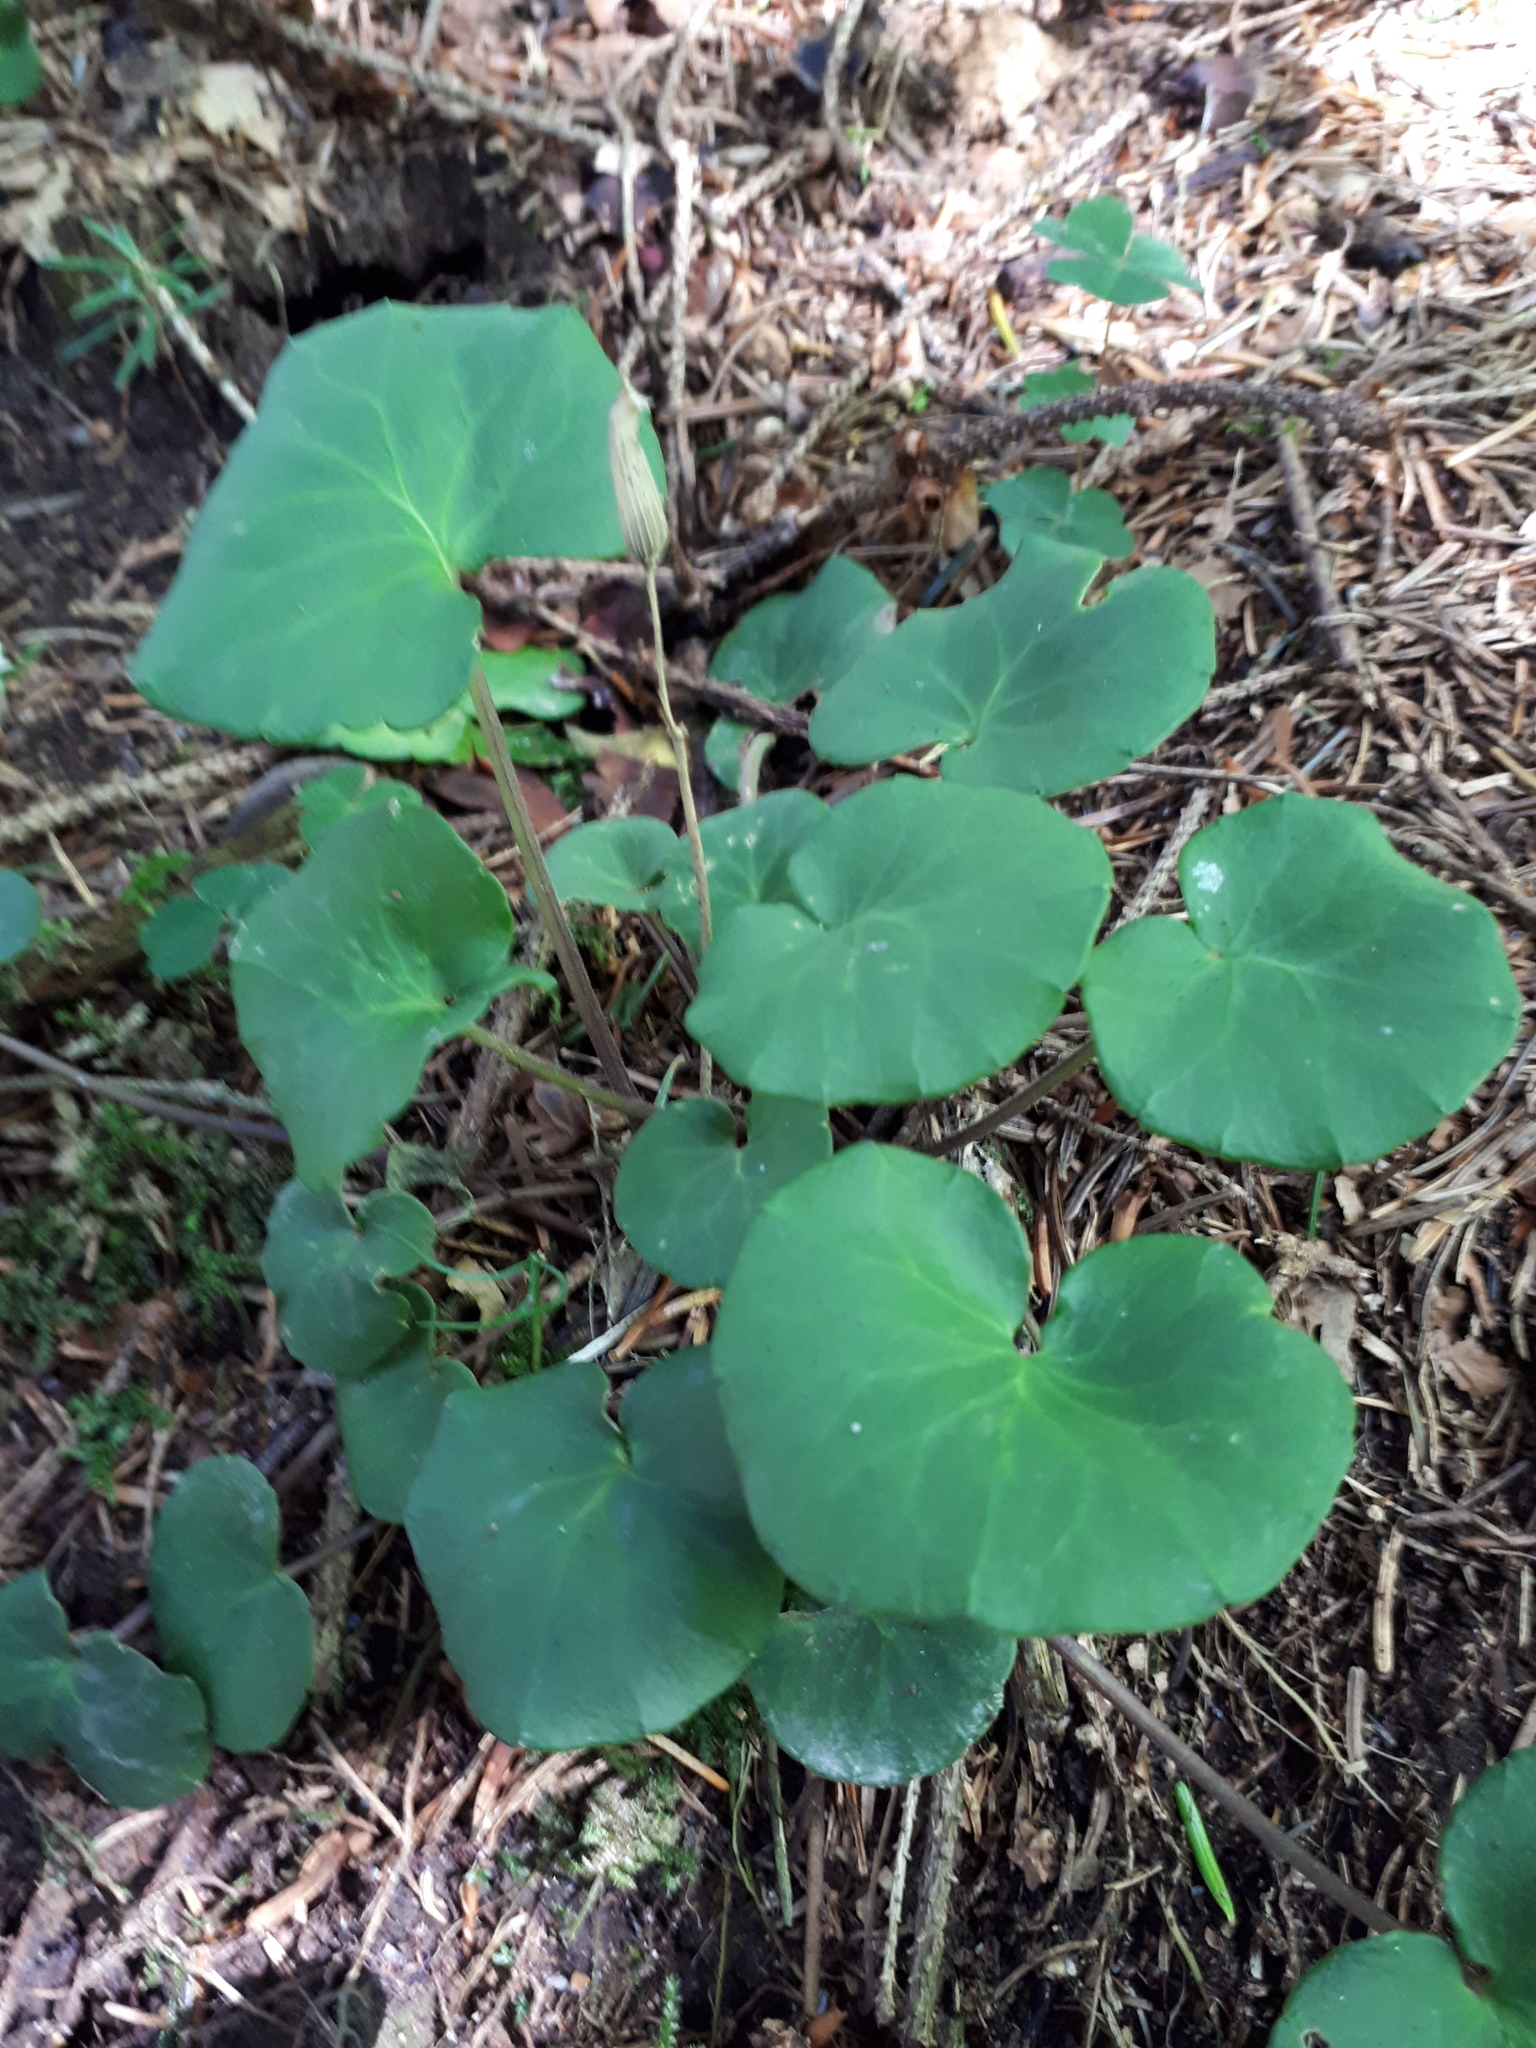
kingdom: Plantae
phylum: Tracheophyta
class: Magnoliopsida
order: Piperales
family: Aristolochiaceae
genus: Asarum
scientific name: Asarum europaeum
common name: Asarabacca
